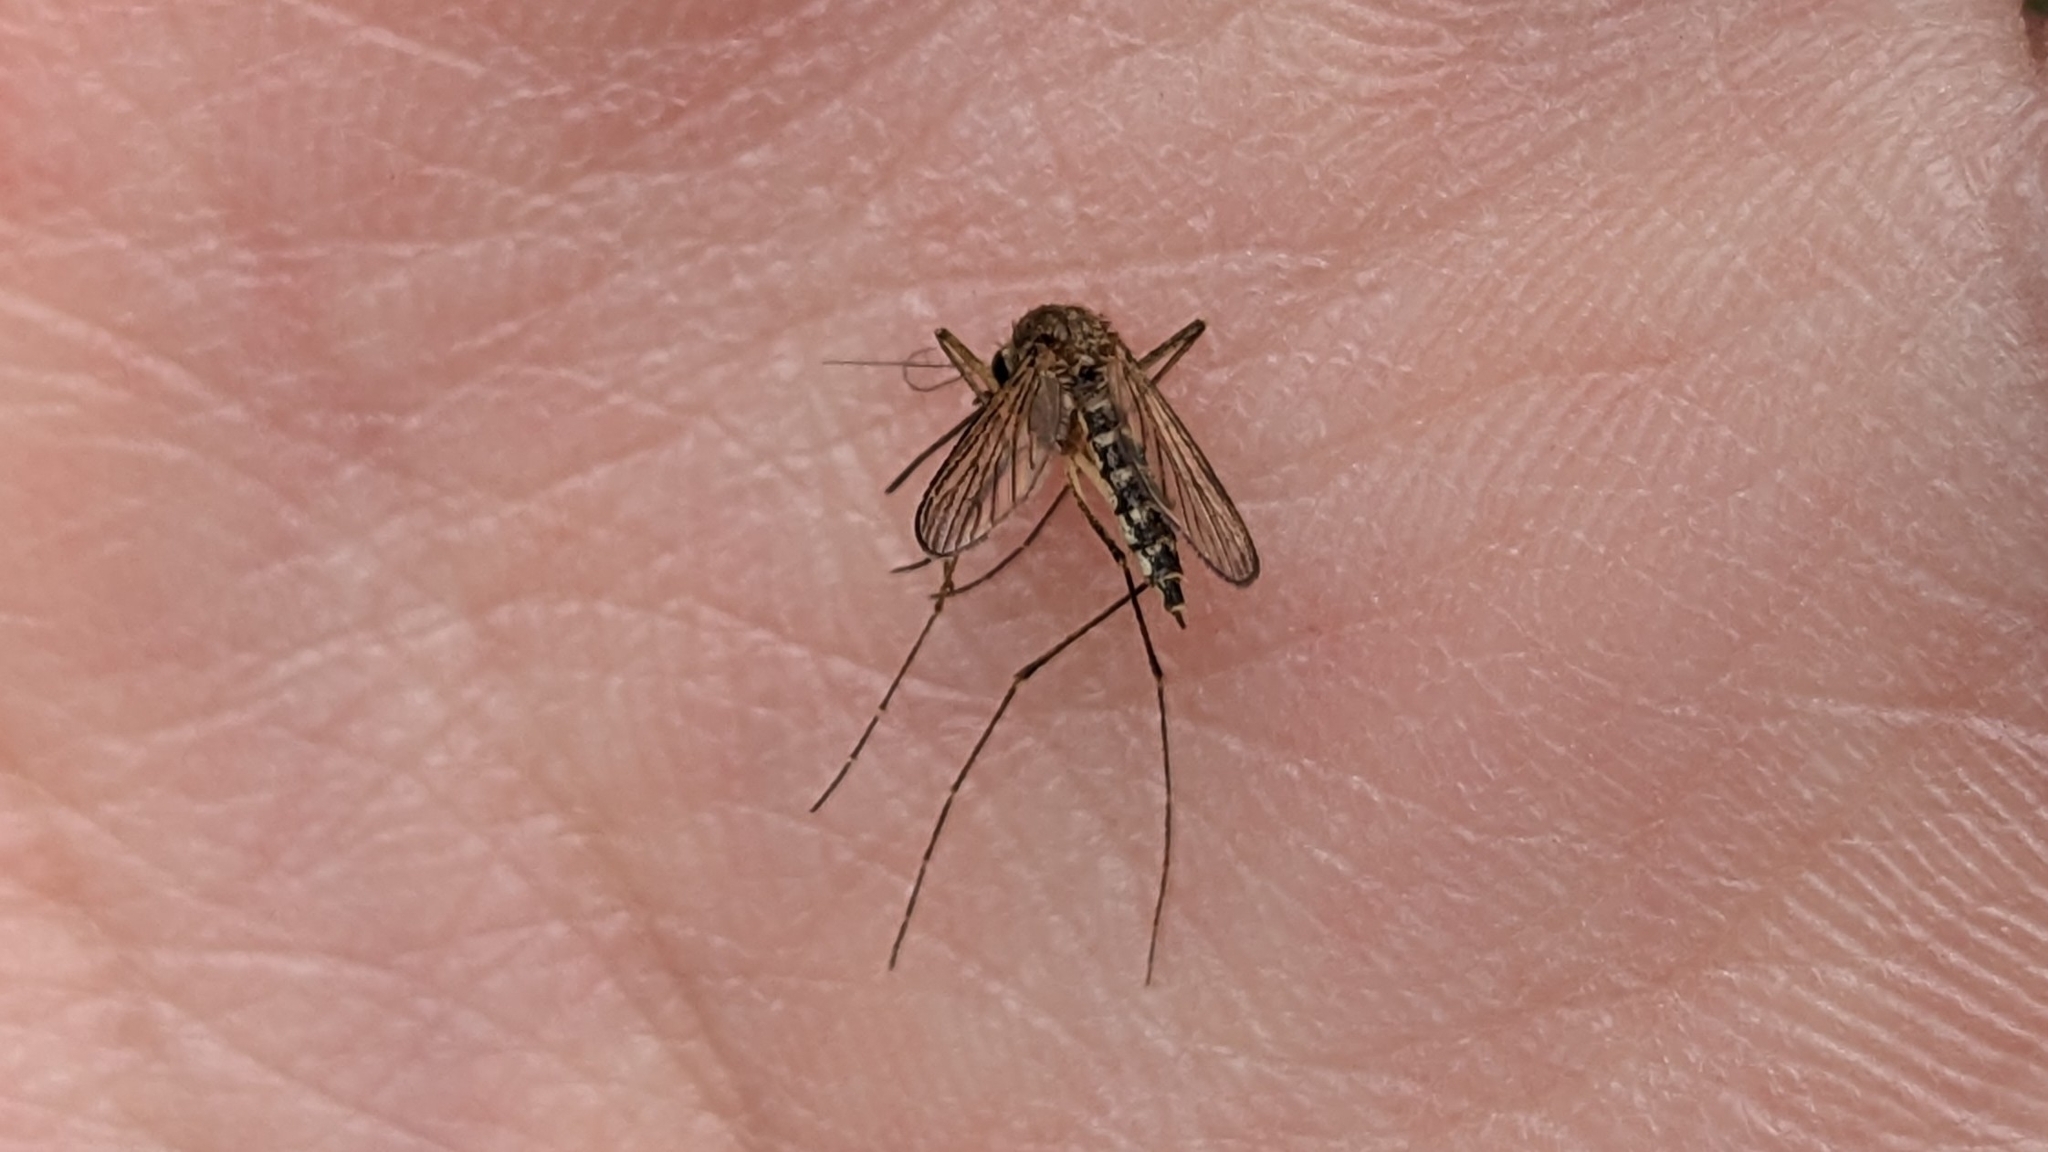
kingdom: Animalia
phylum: Arthropoda
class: Insecta
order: Diptera
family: Culicidae
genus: Aedes
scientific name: Aedes vexans
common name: Inland floodwater mosquito
